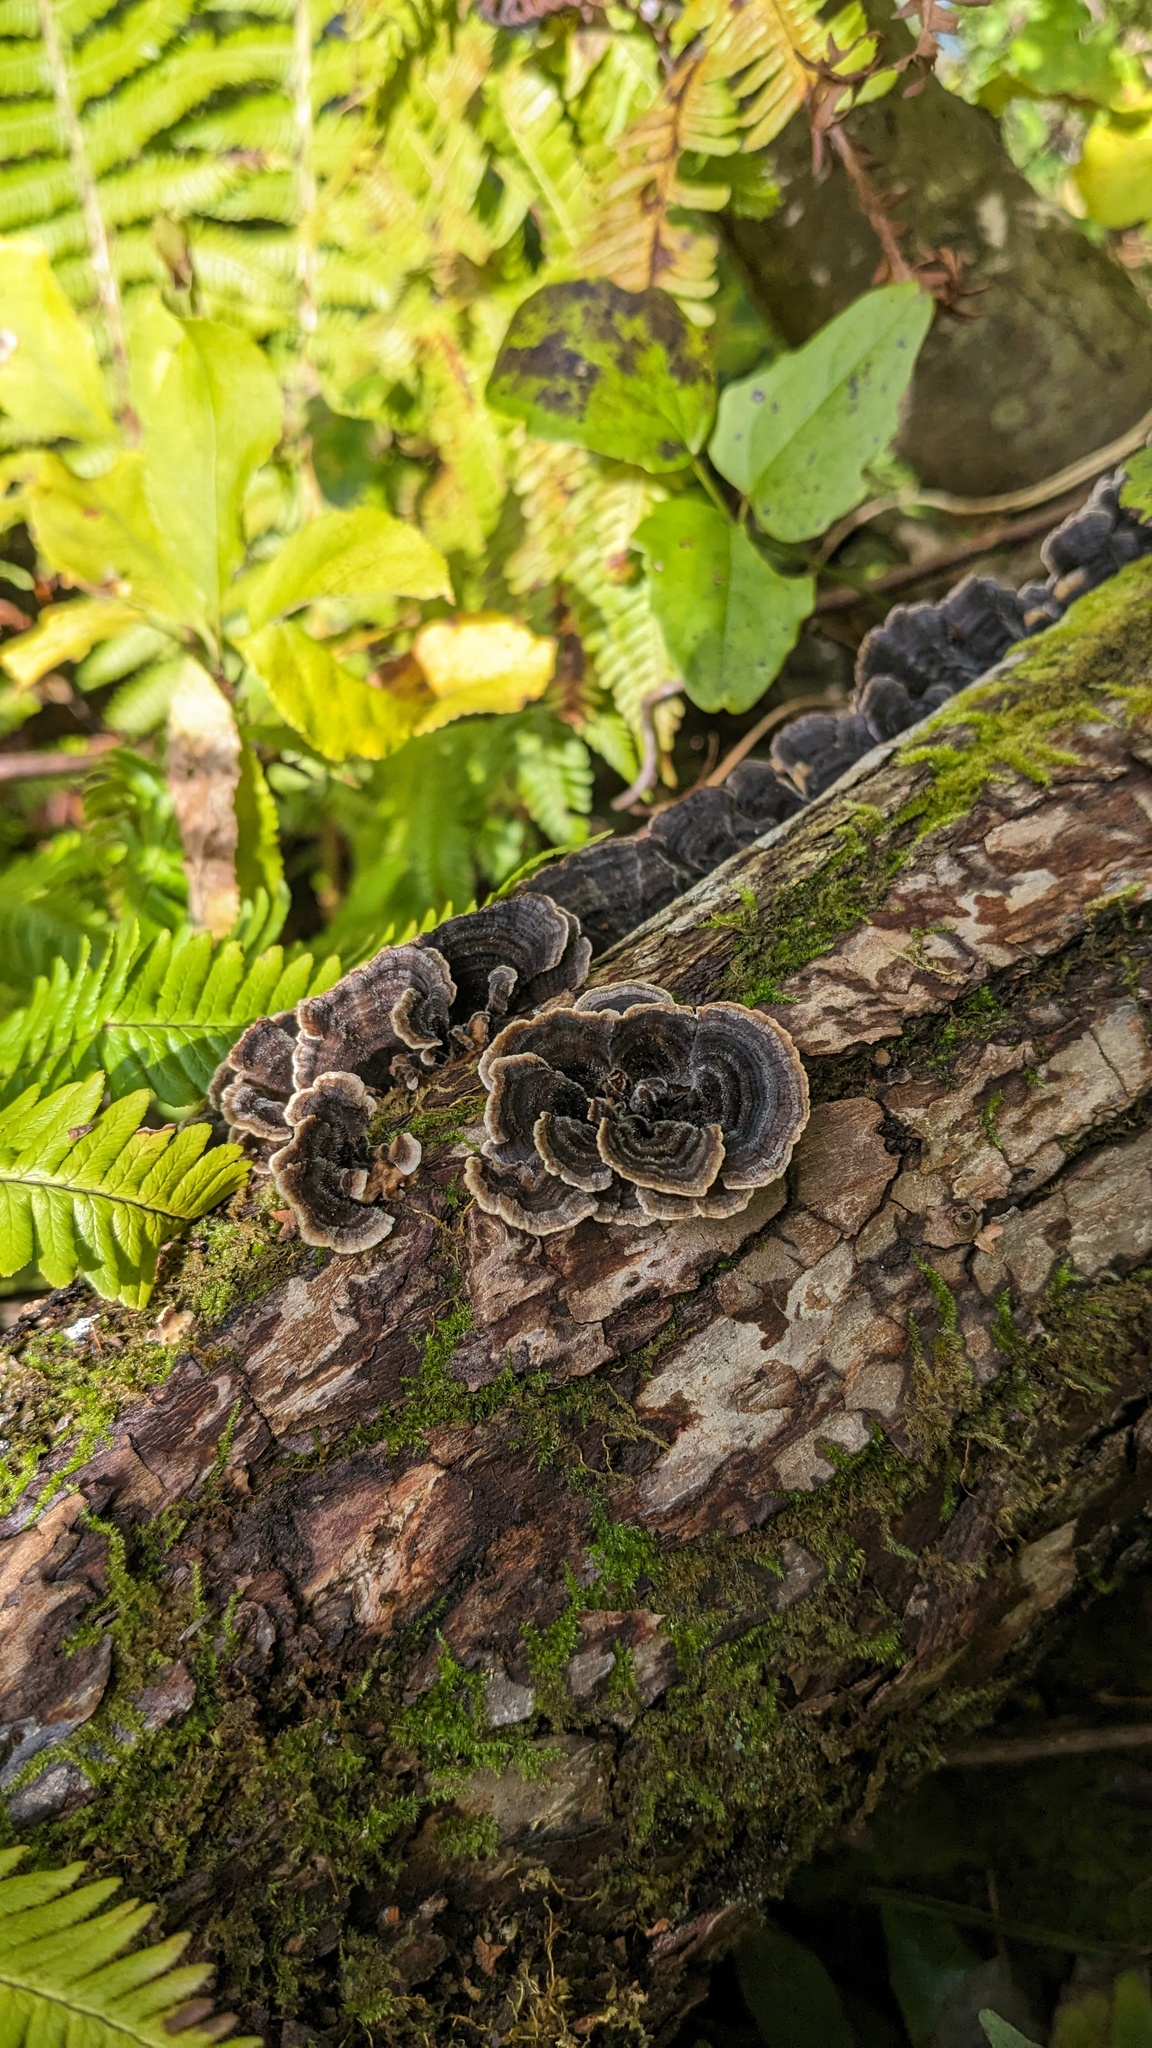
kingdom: Fungi
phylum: Basidiomycota
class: Agaricomycetes
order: Polyporales
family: Polyporaceae
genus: Trametes
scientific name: Trametes versicolor
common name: Turkeytail
